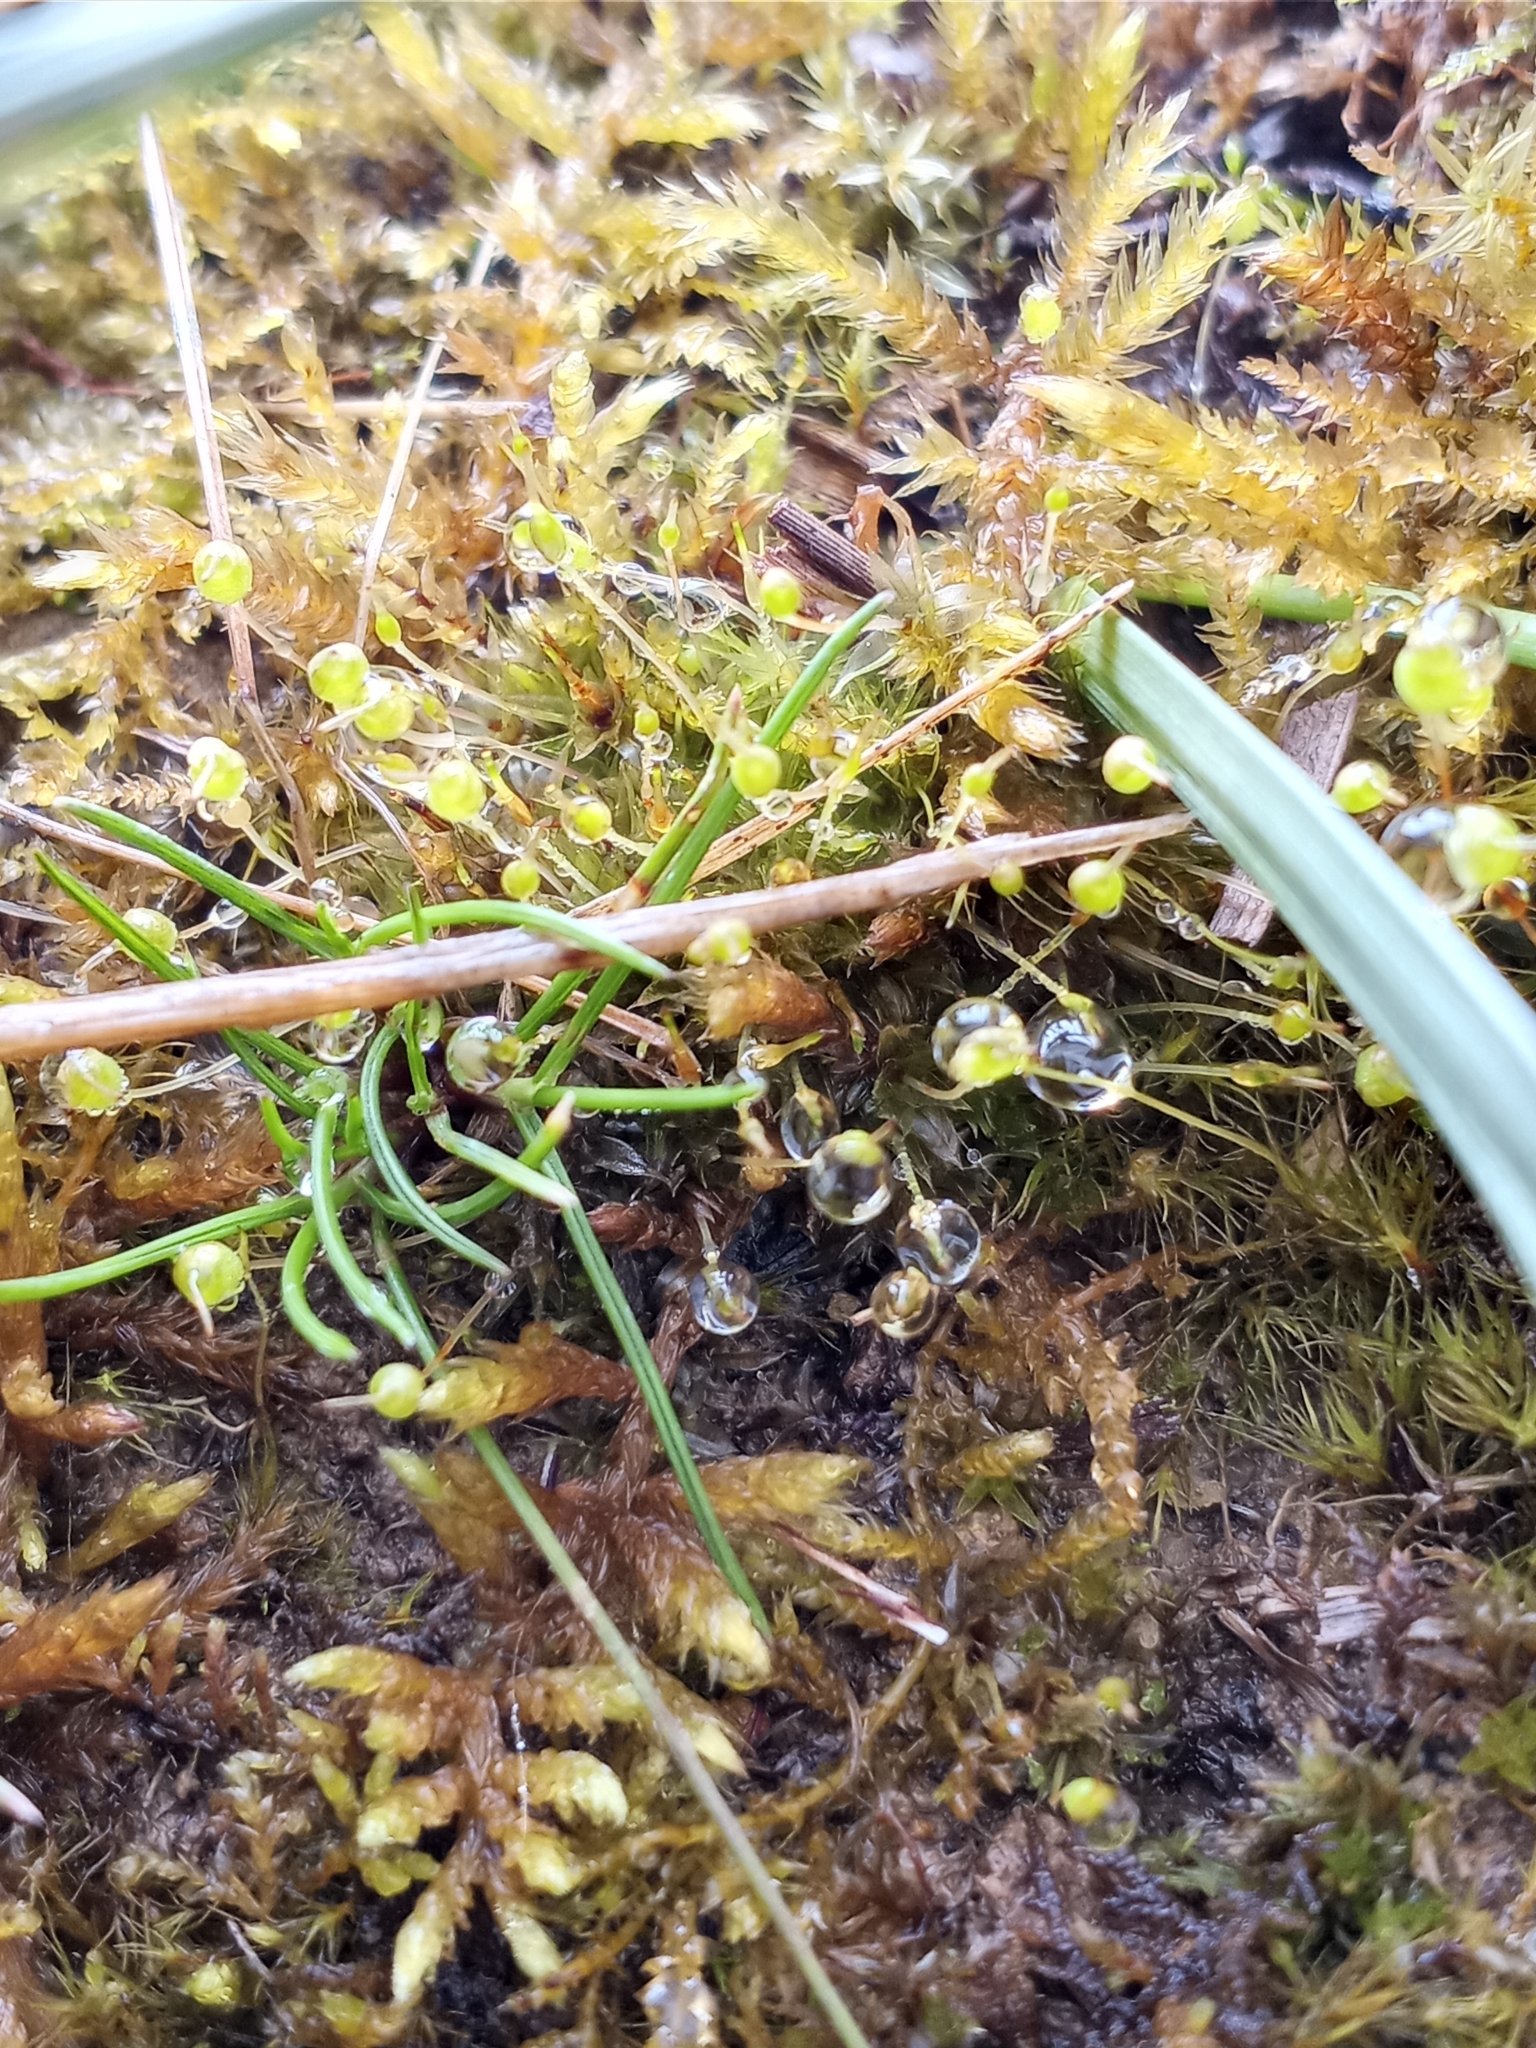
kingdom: Plantae
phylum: Bryophyta
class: Bryopsida
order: Funariales
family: Funariaceae
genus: Physcomitrium
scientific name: Physcomitrium pyriforme
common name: Common bladder-moss
